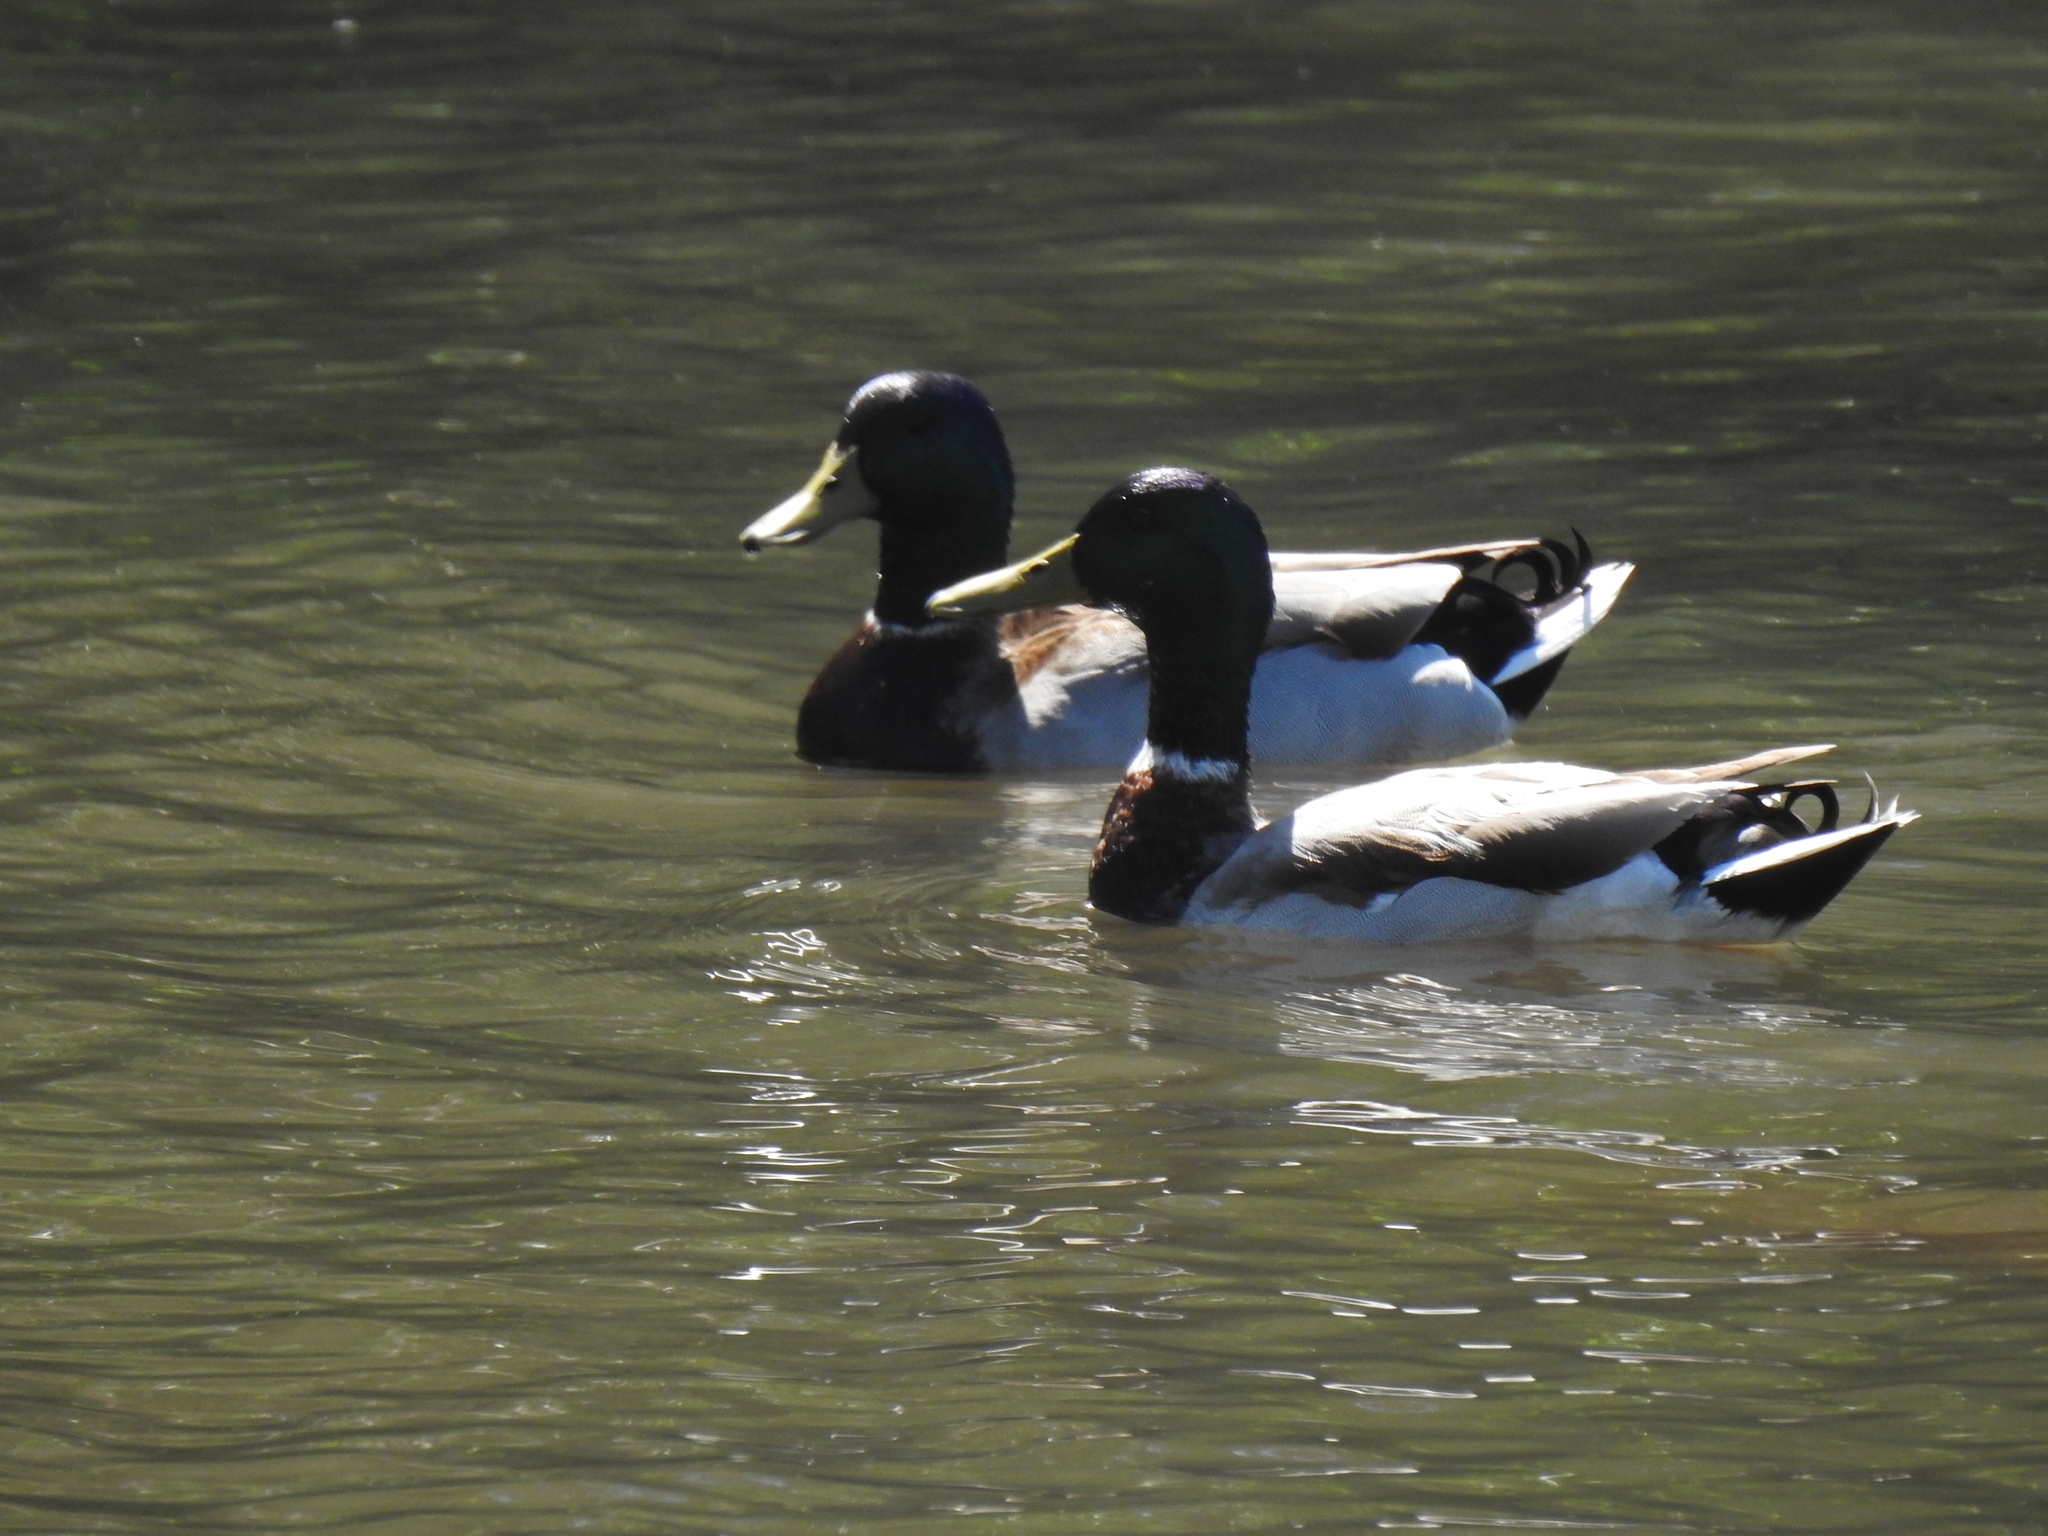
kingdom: Animalia
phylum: Chordata
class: Aves
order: Anseriformes
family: Anatidae
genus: Anas
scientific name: Anas platyrhynchos
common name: Mallard
